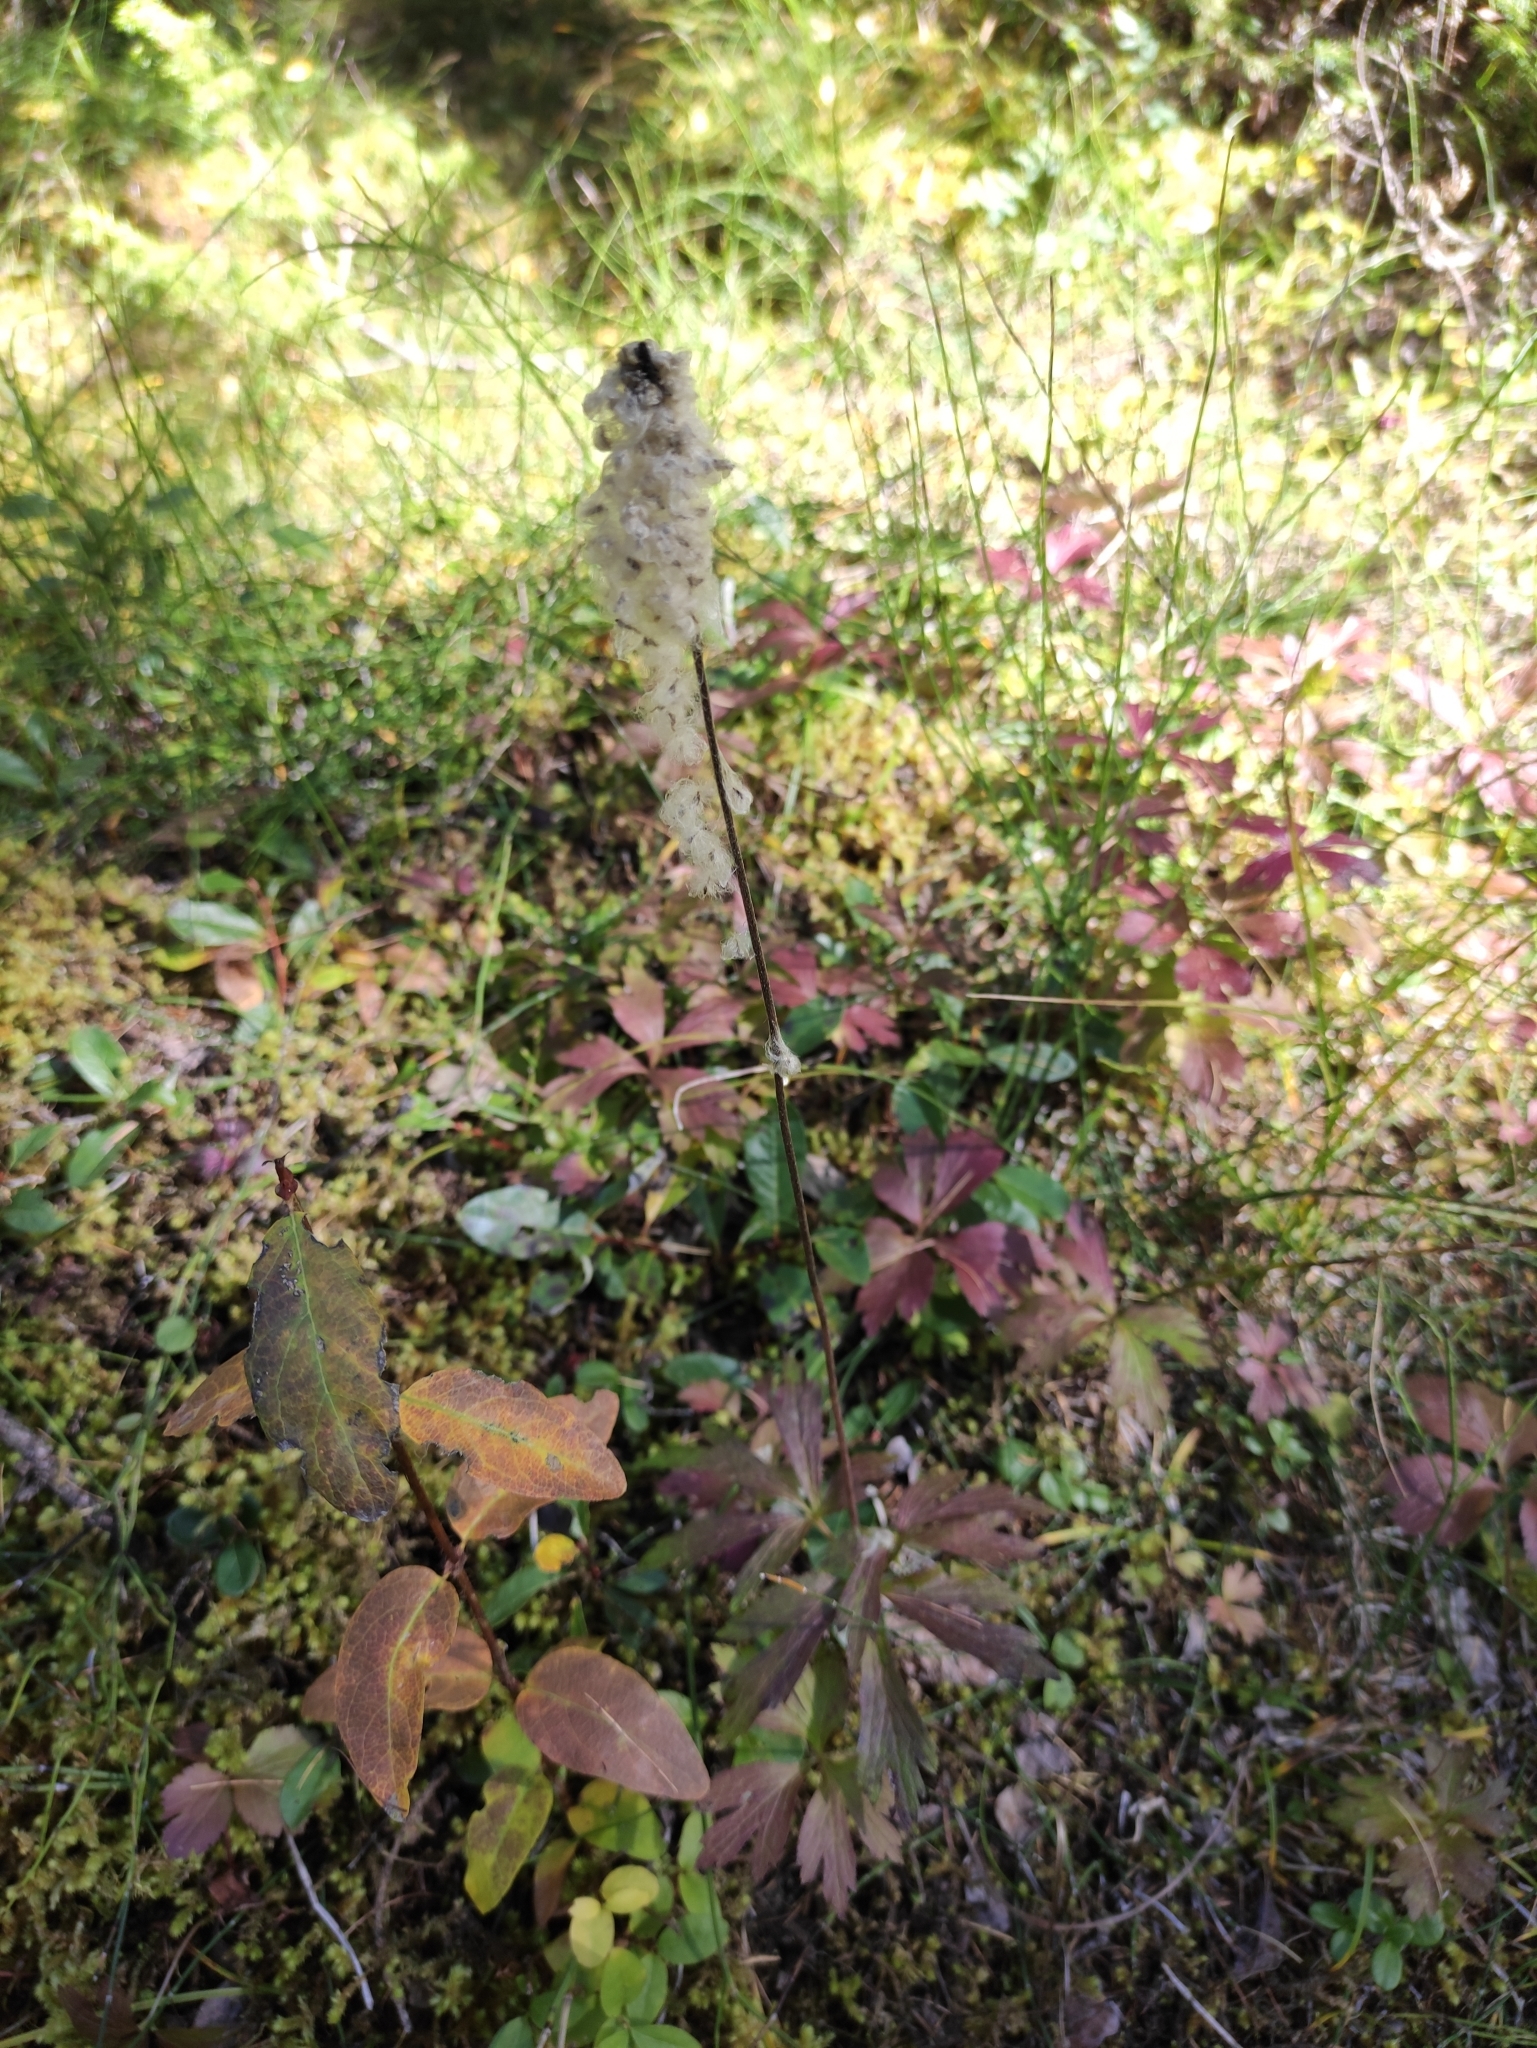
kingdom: Plantae
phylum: Tracheophyta
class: Magnoliopsida
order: Ranunculales
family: Ranunculaceae
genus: Anemone
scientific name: Anemone sylvestris
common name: Snowdrop anemone
